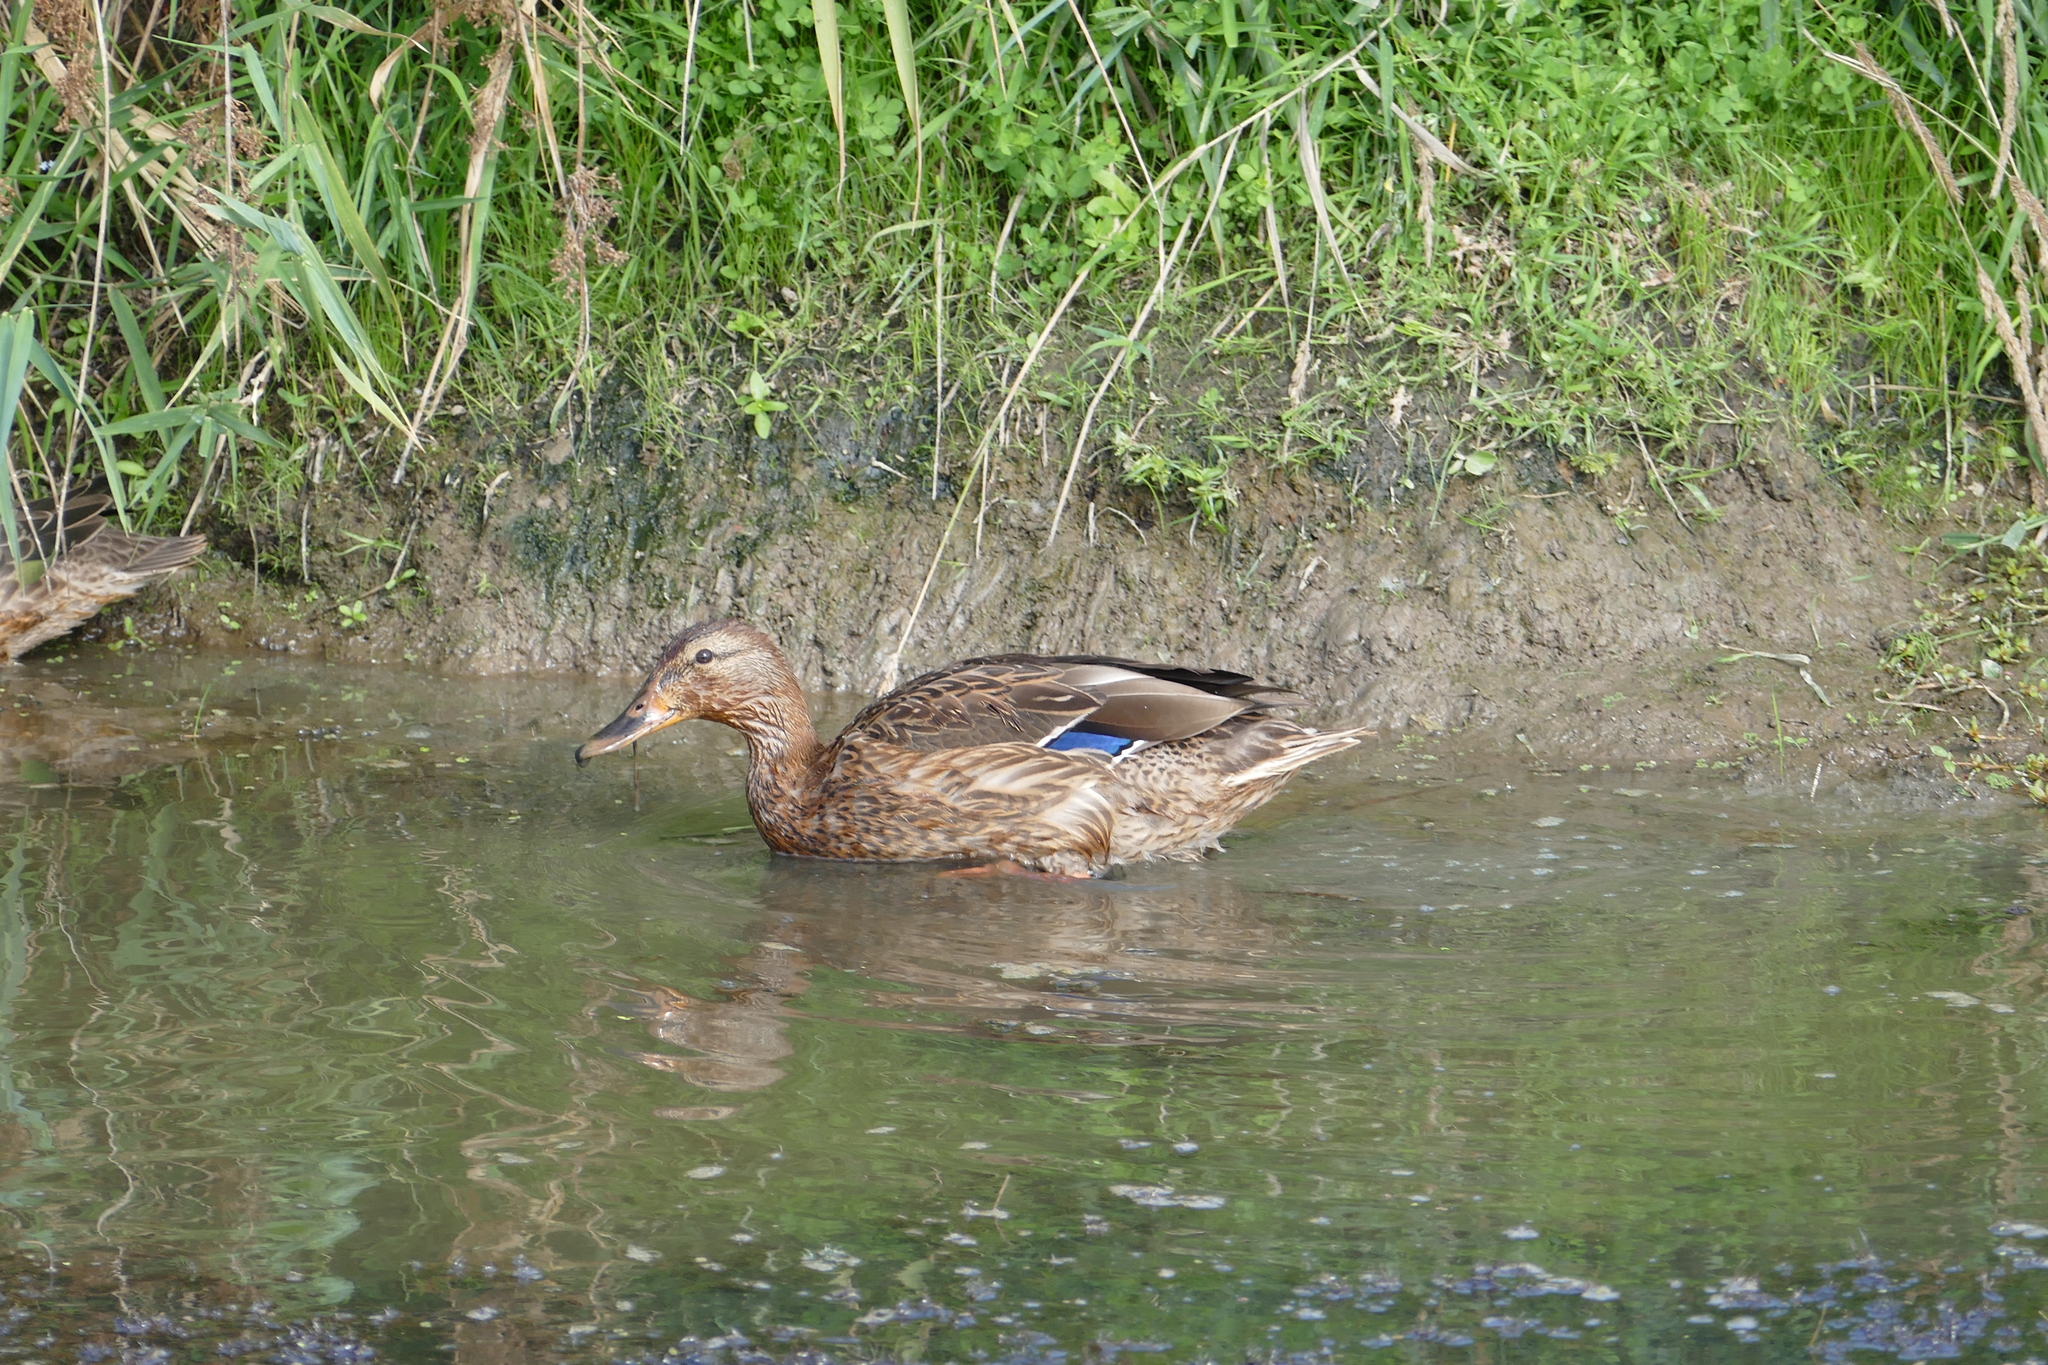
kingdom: Animalia
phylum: Chordata
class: Aves
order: Anseriformes
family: Anatidae
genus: Anas
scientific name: Anas platyrhynchos
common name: Mallard
